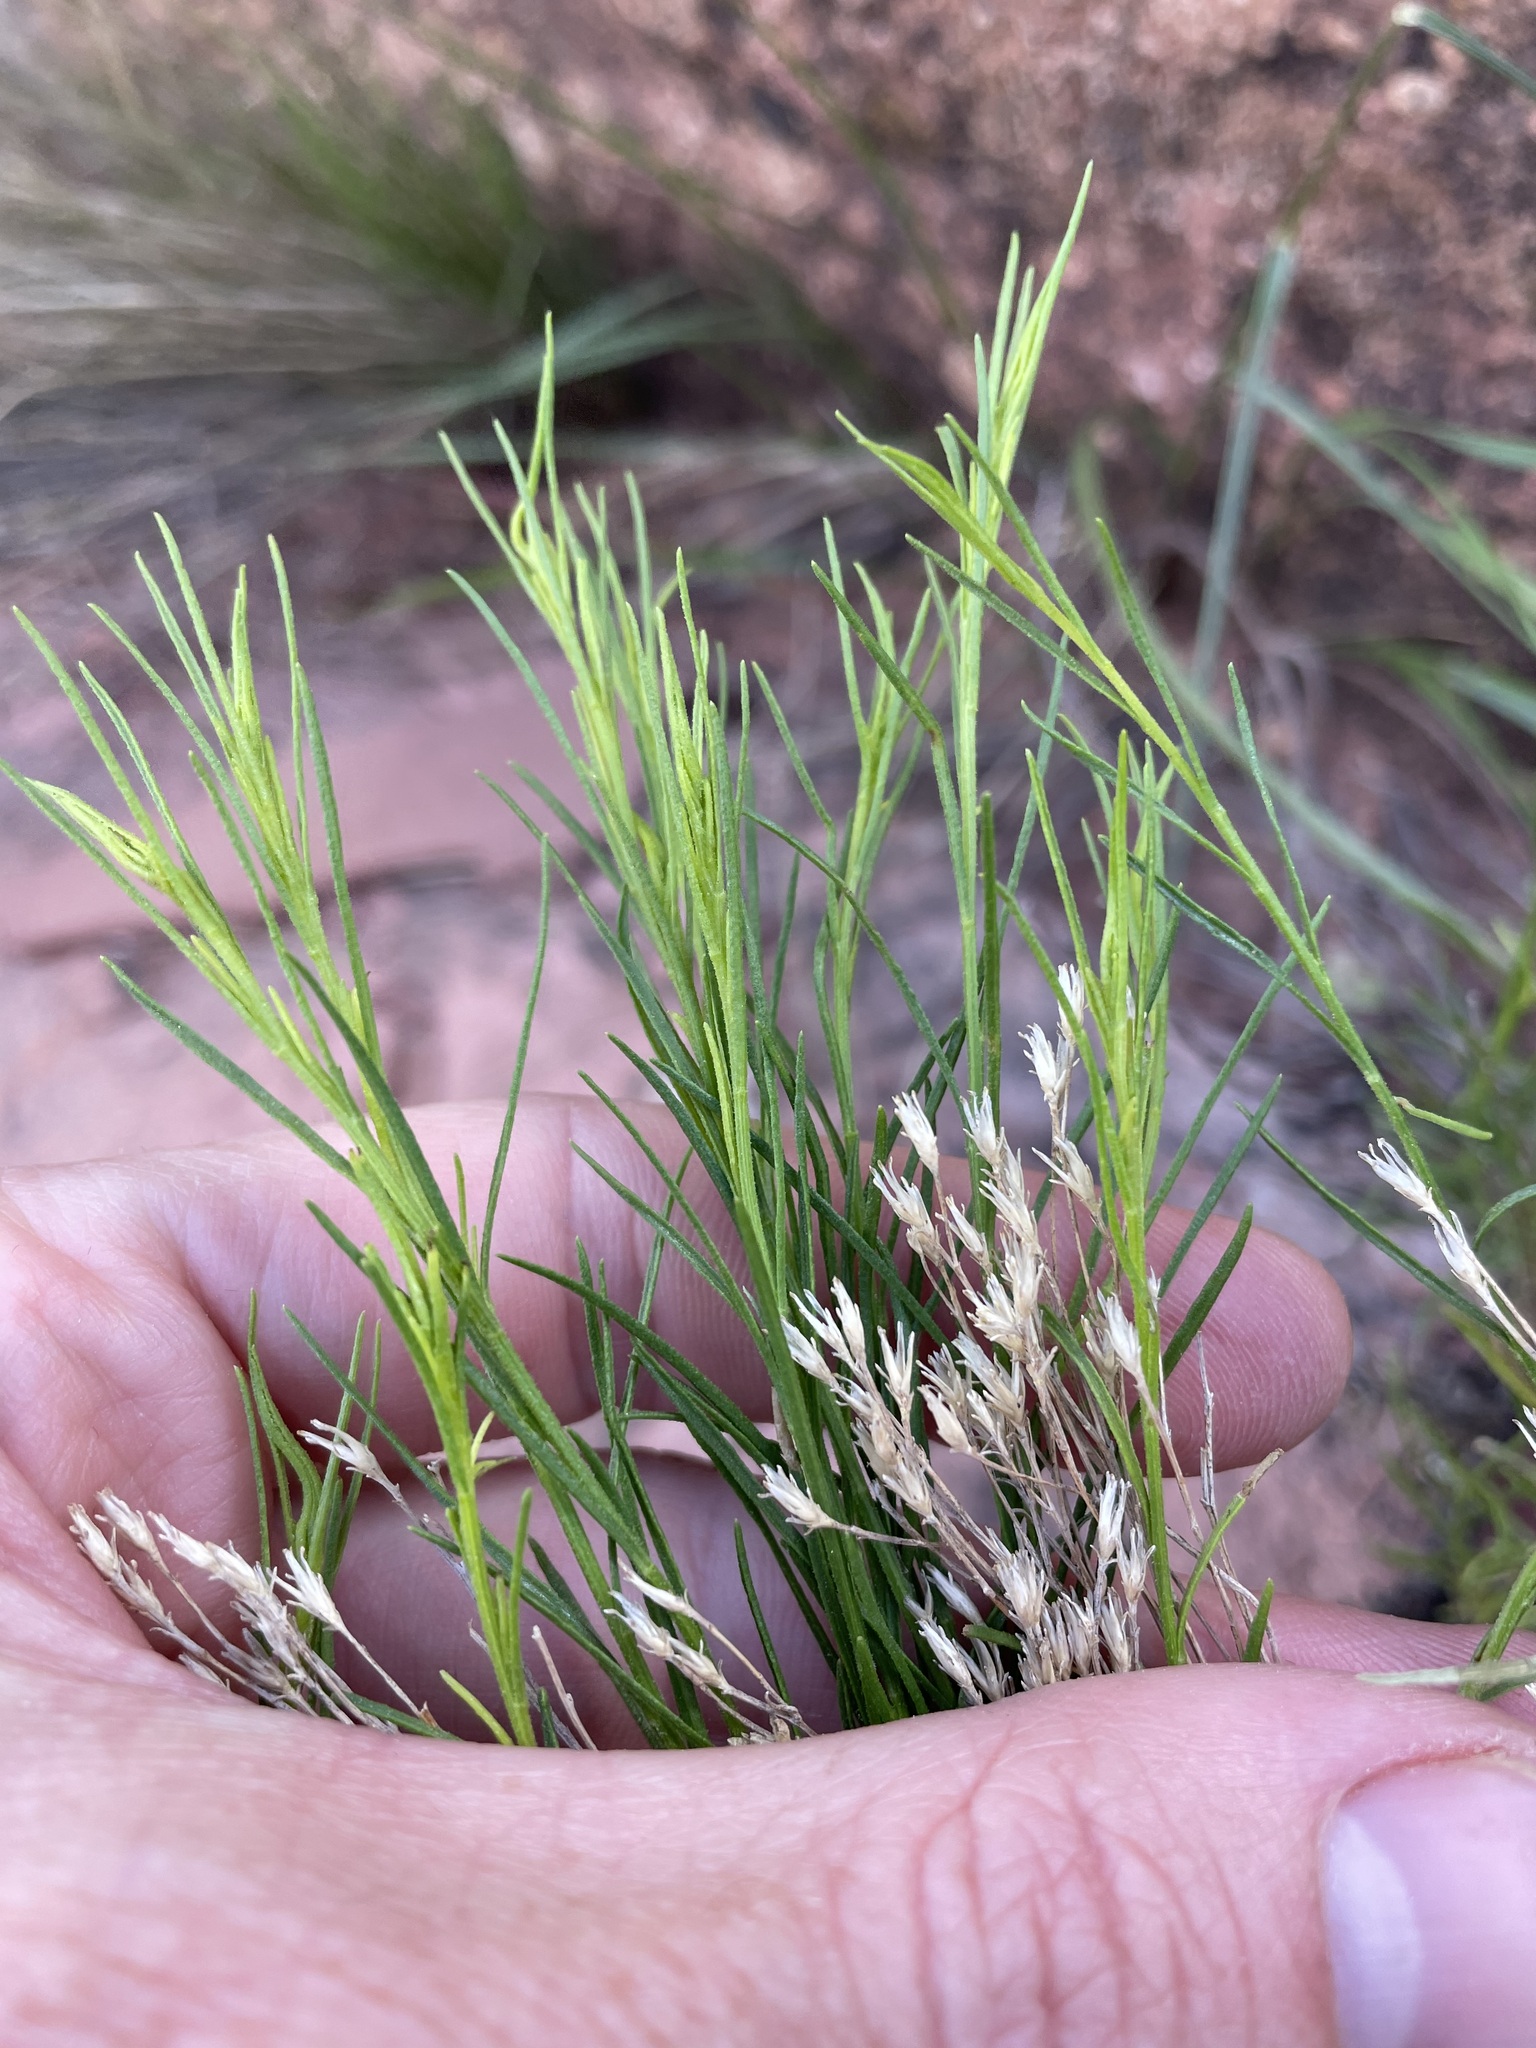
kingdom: Plantae
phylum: Tracheophyta
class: Magnoliopsida
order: Asterales
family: Asteraceae
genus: Gutierrezia
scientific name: Gutierrezia sarothrae
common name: Broom snakeweed
